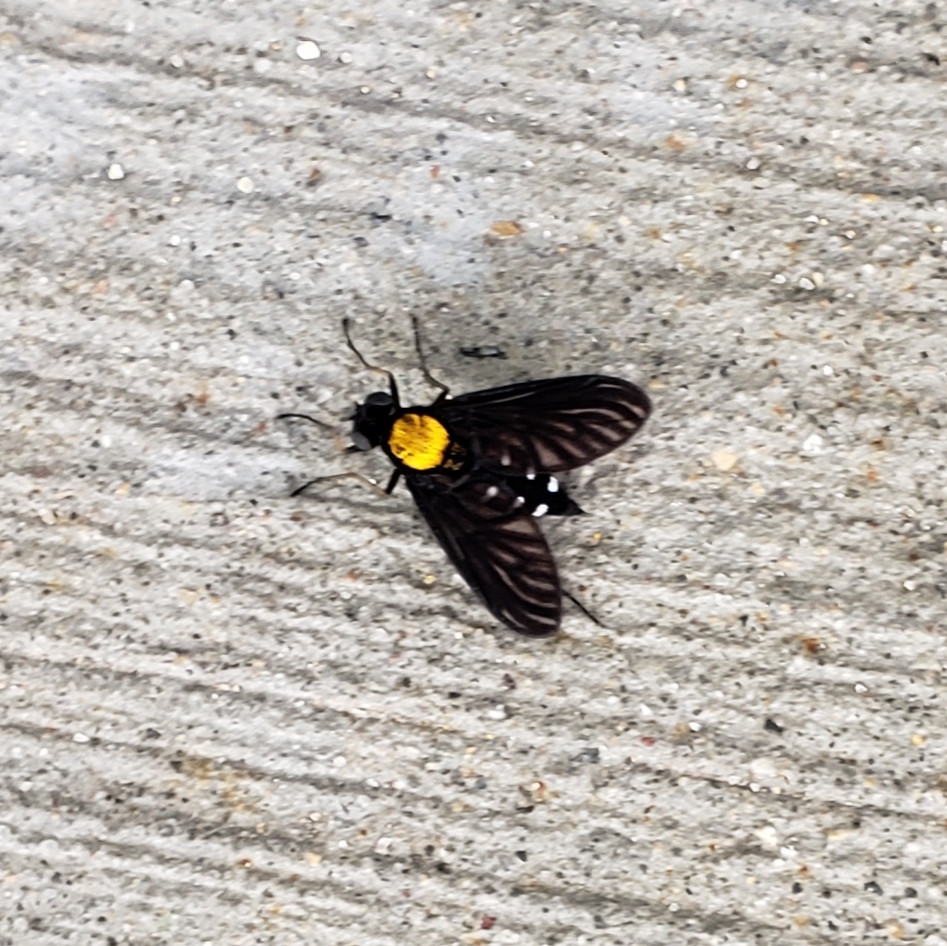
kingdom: Animalia
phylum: Arthropoda
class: Insecta
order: Diptera
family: Rhagionidae
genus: Chrysopilus
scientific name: Chrysopilus thoracicus
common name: Golden-backed snipe fly
